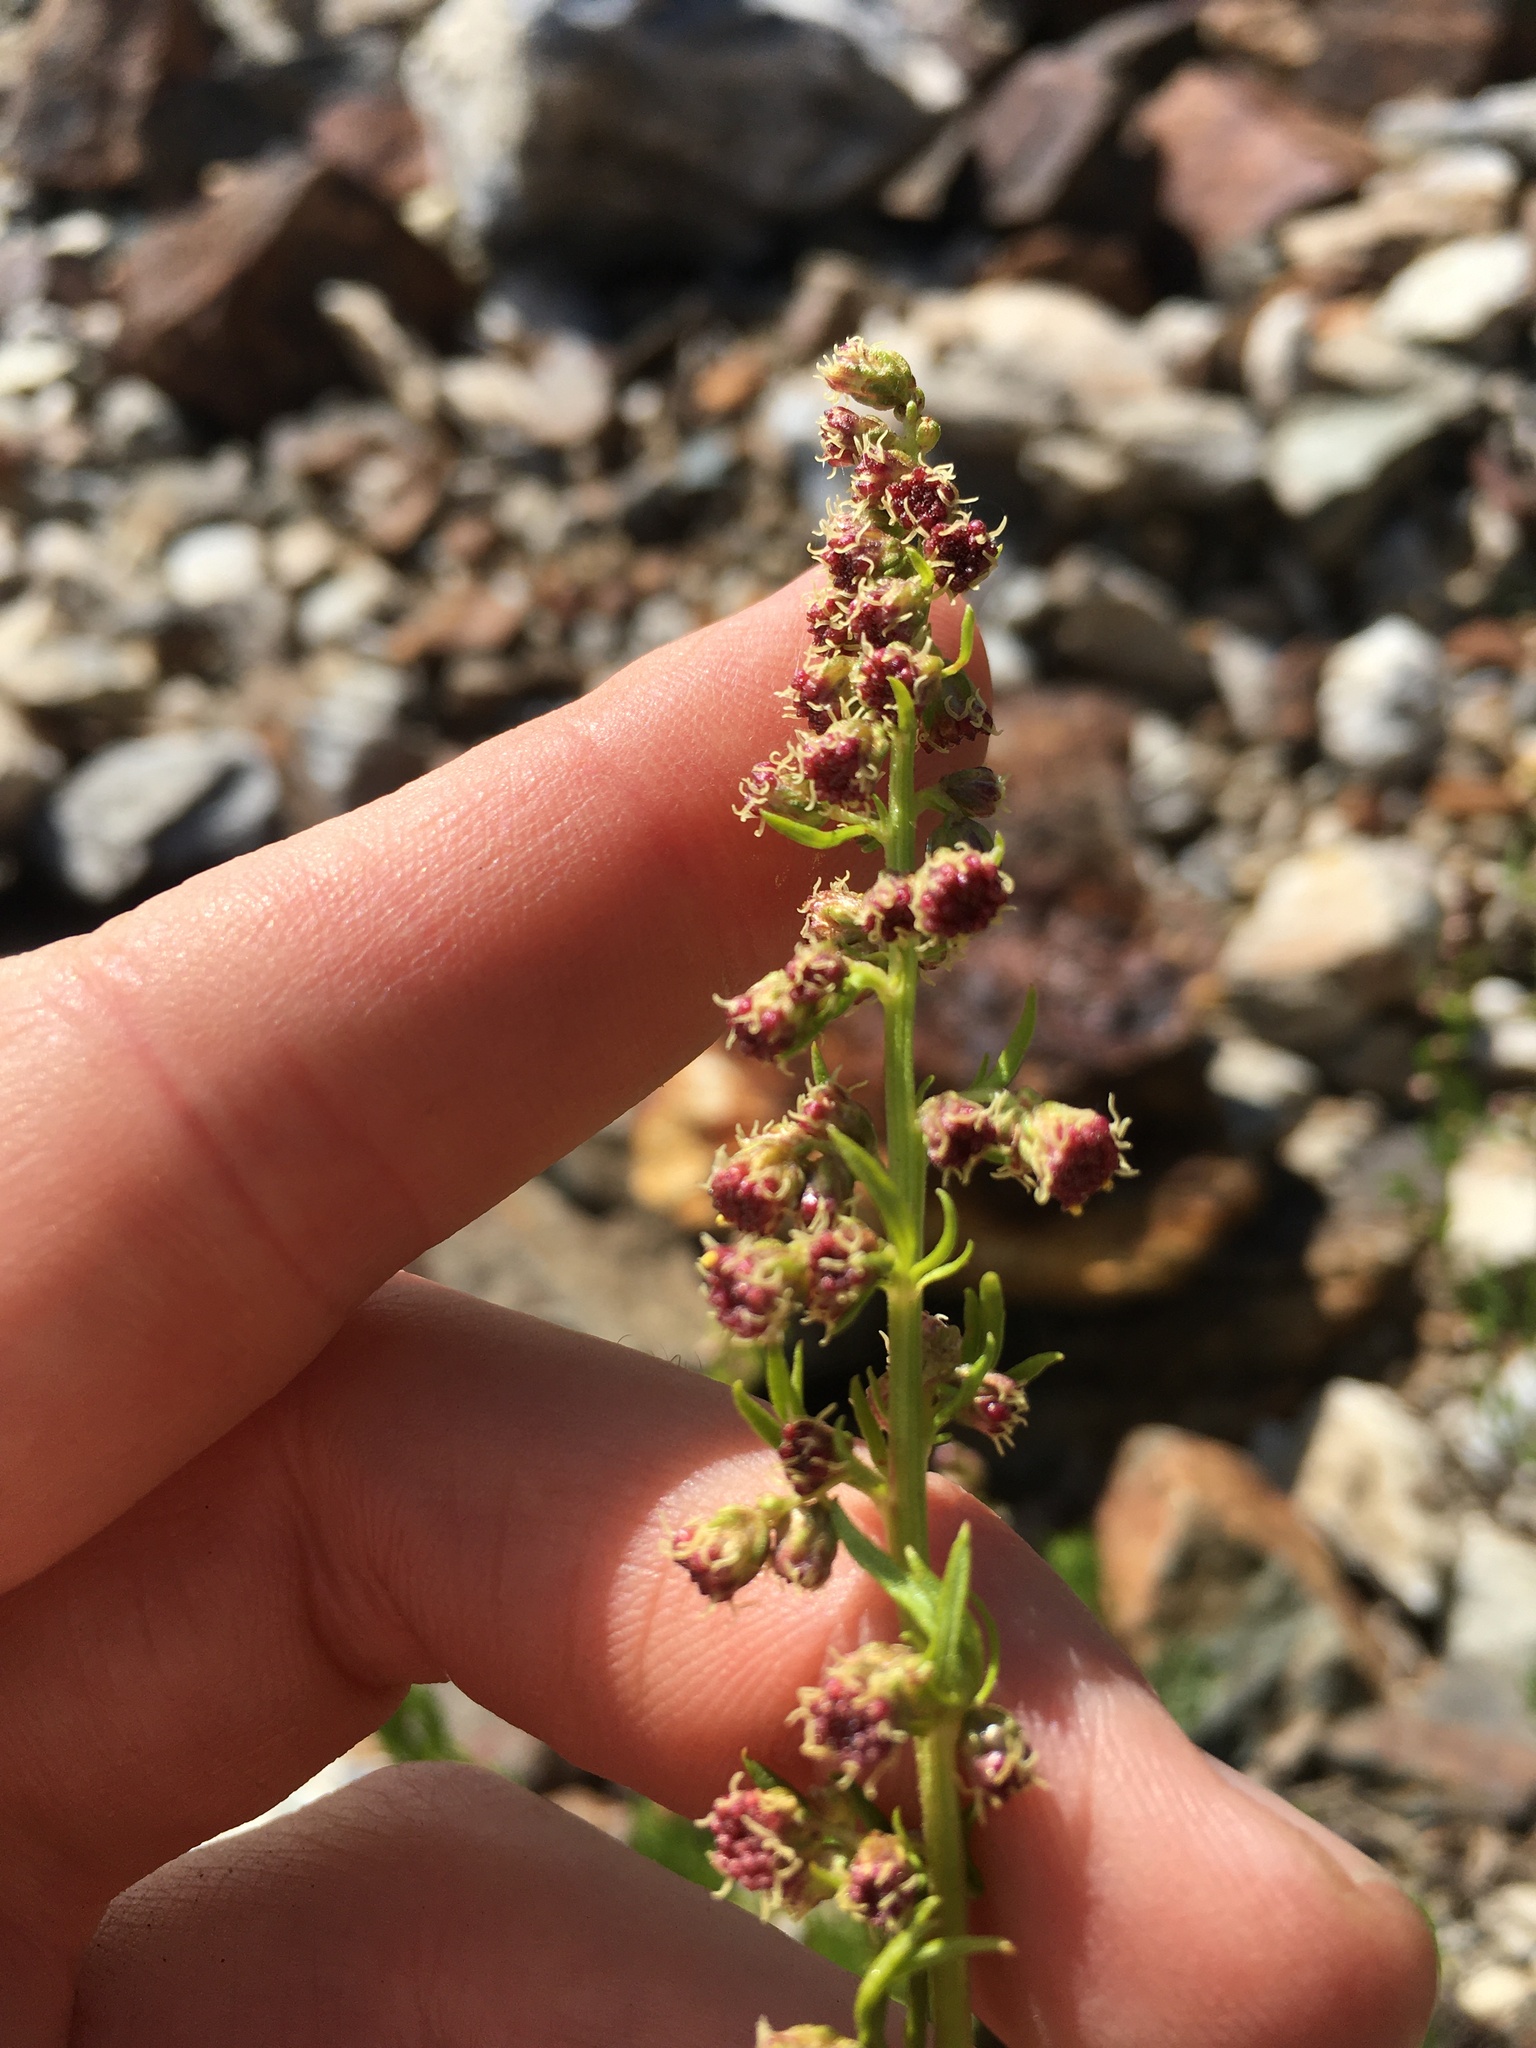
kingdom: Plantae
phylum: Tracheophyta
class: Magnoliopsida
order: Asterales
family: Asteraceae
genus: Artemisia
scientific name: Artemisia michauxiana
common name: Lemon sagewort
